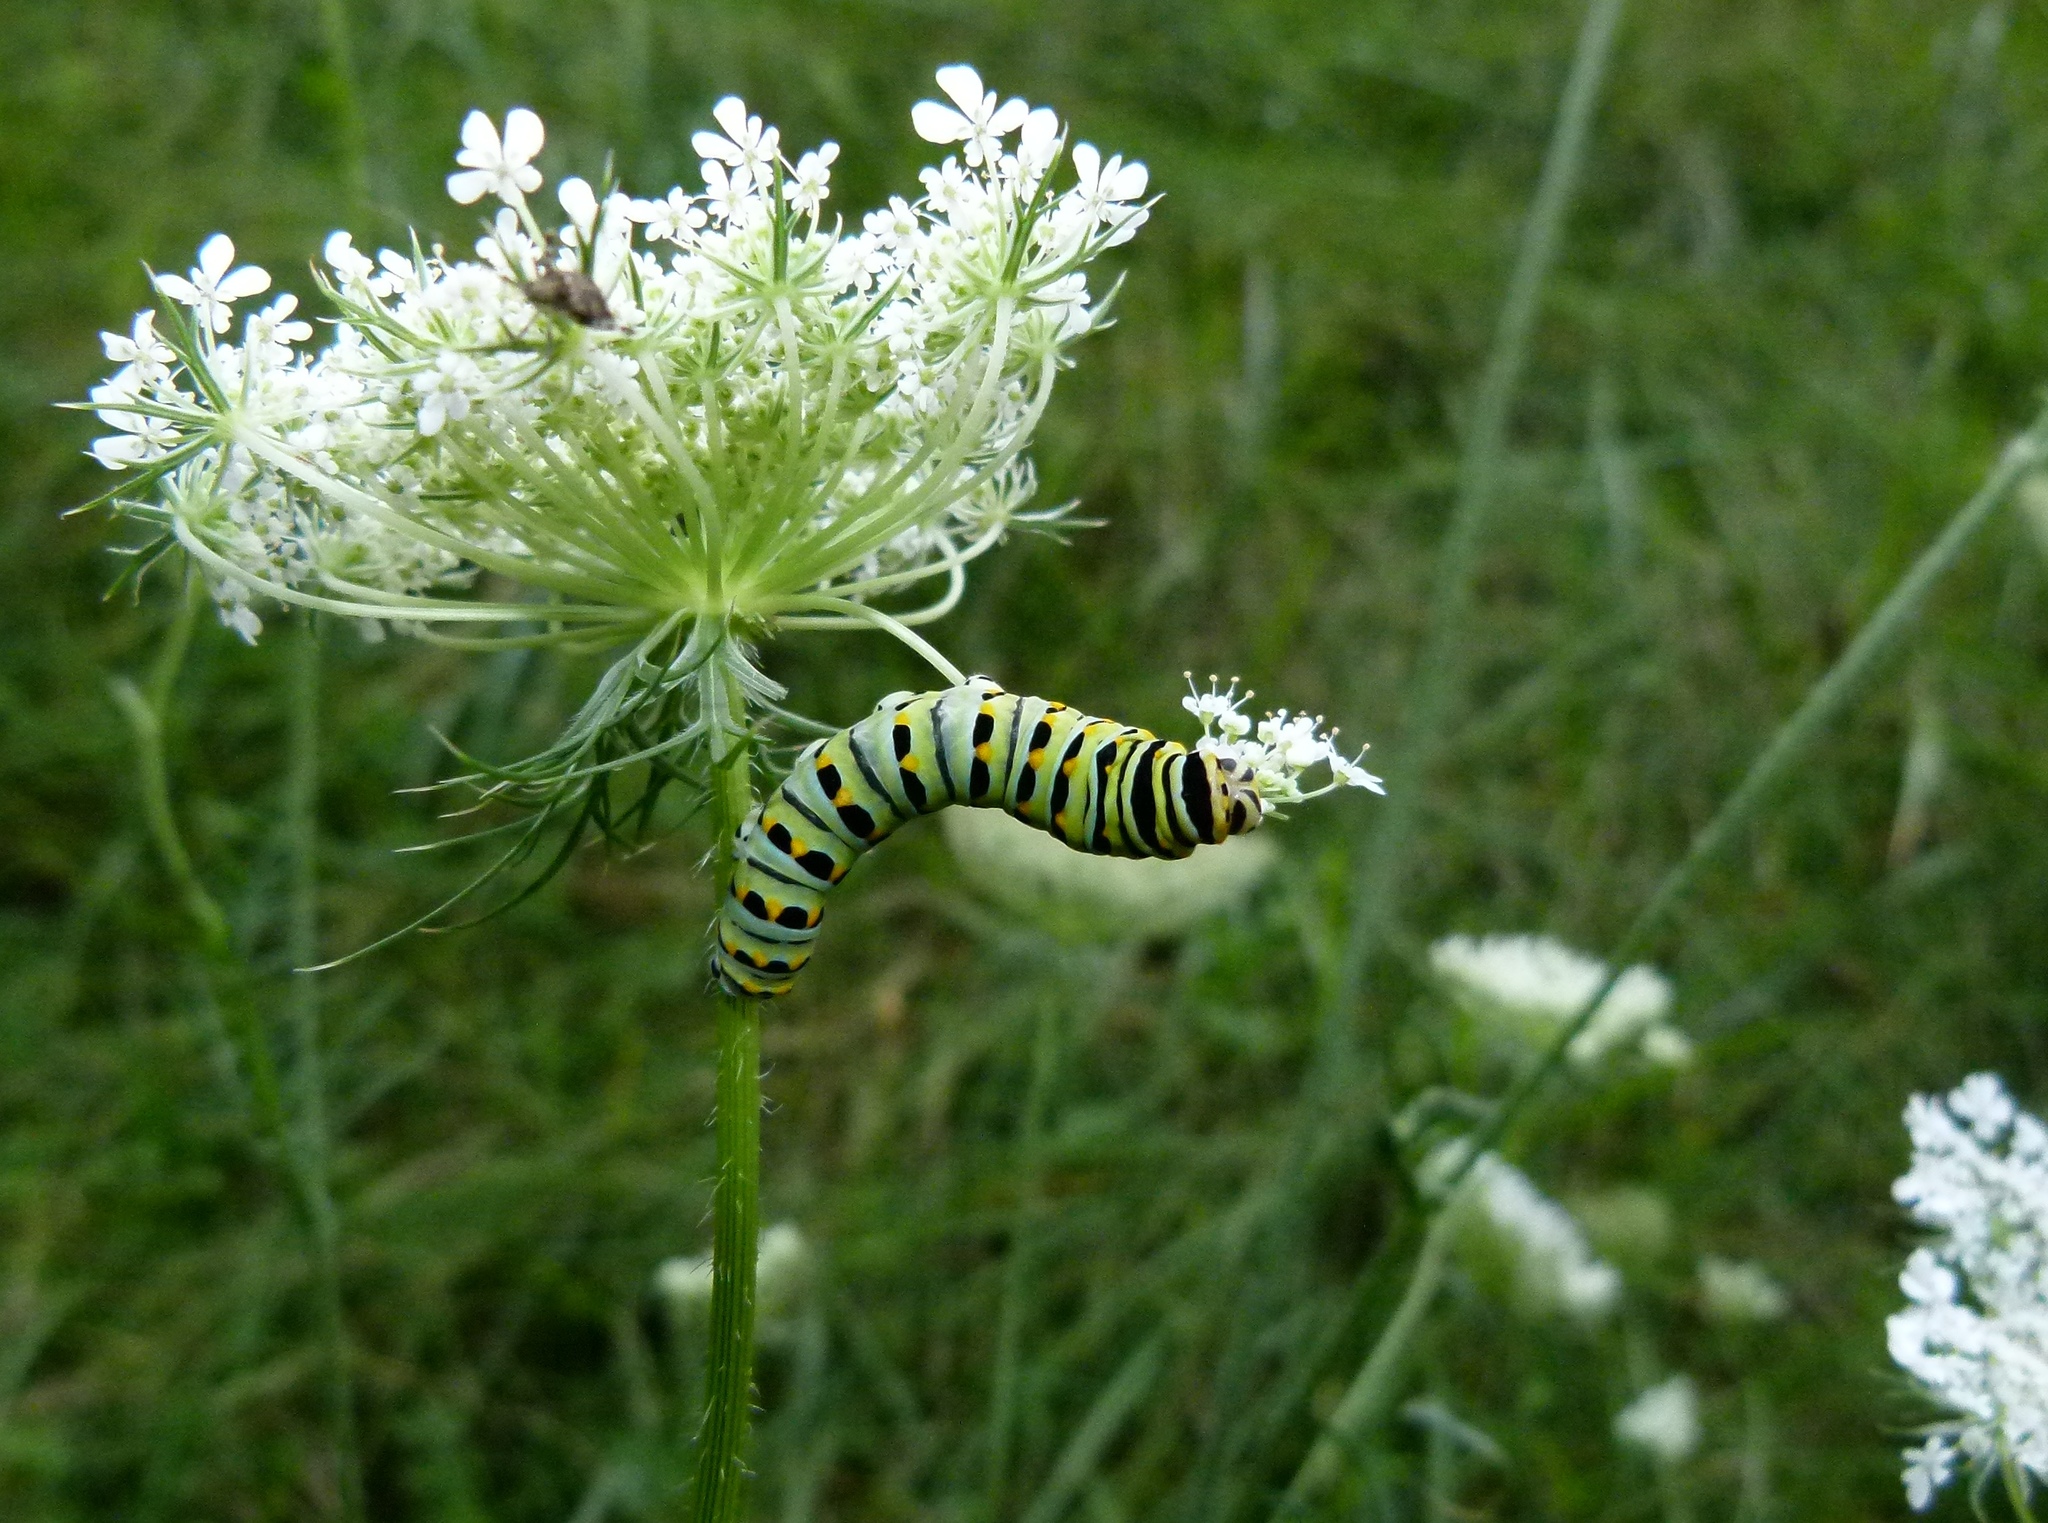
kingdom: Animalia
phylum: Arthropoda
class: Insecta
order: Lepidoptera
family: Papilionidae
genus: Papilio
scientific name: Papilio polyxenes
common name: Black swallowtail
